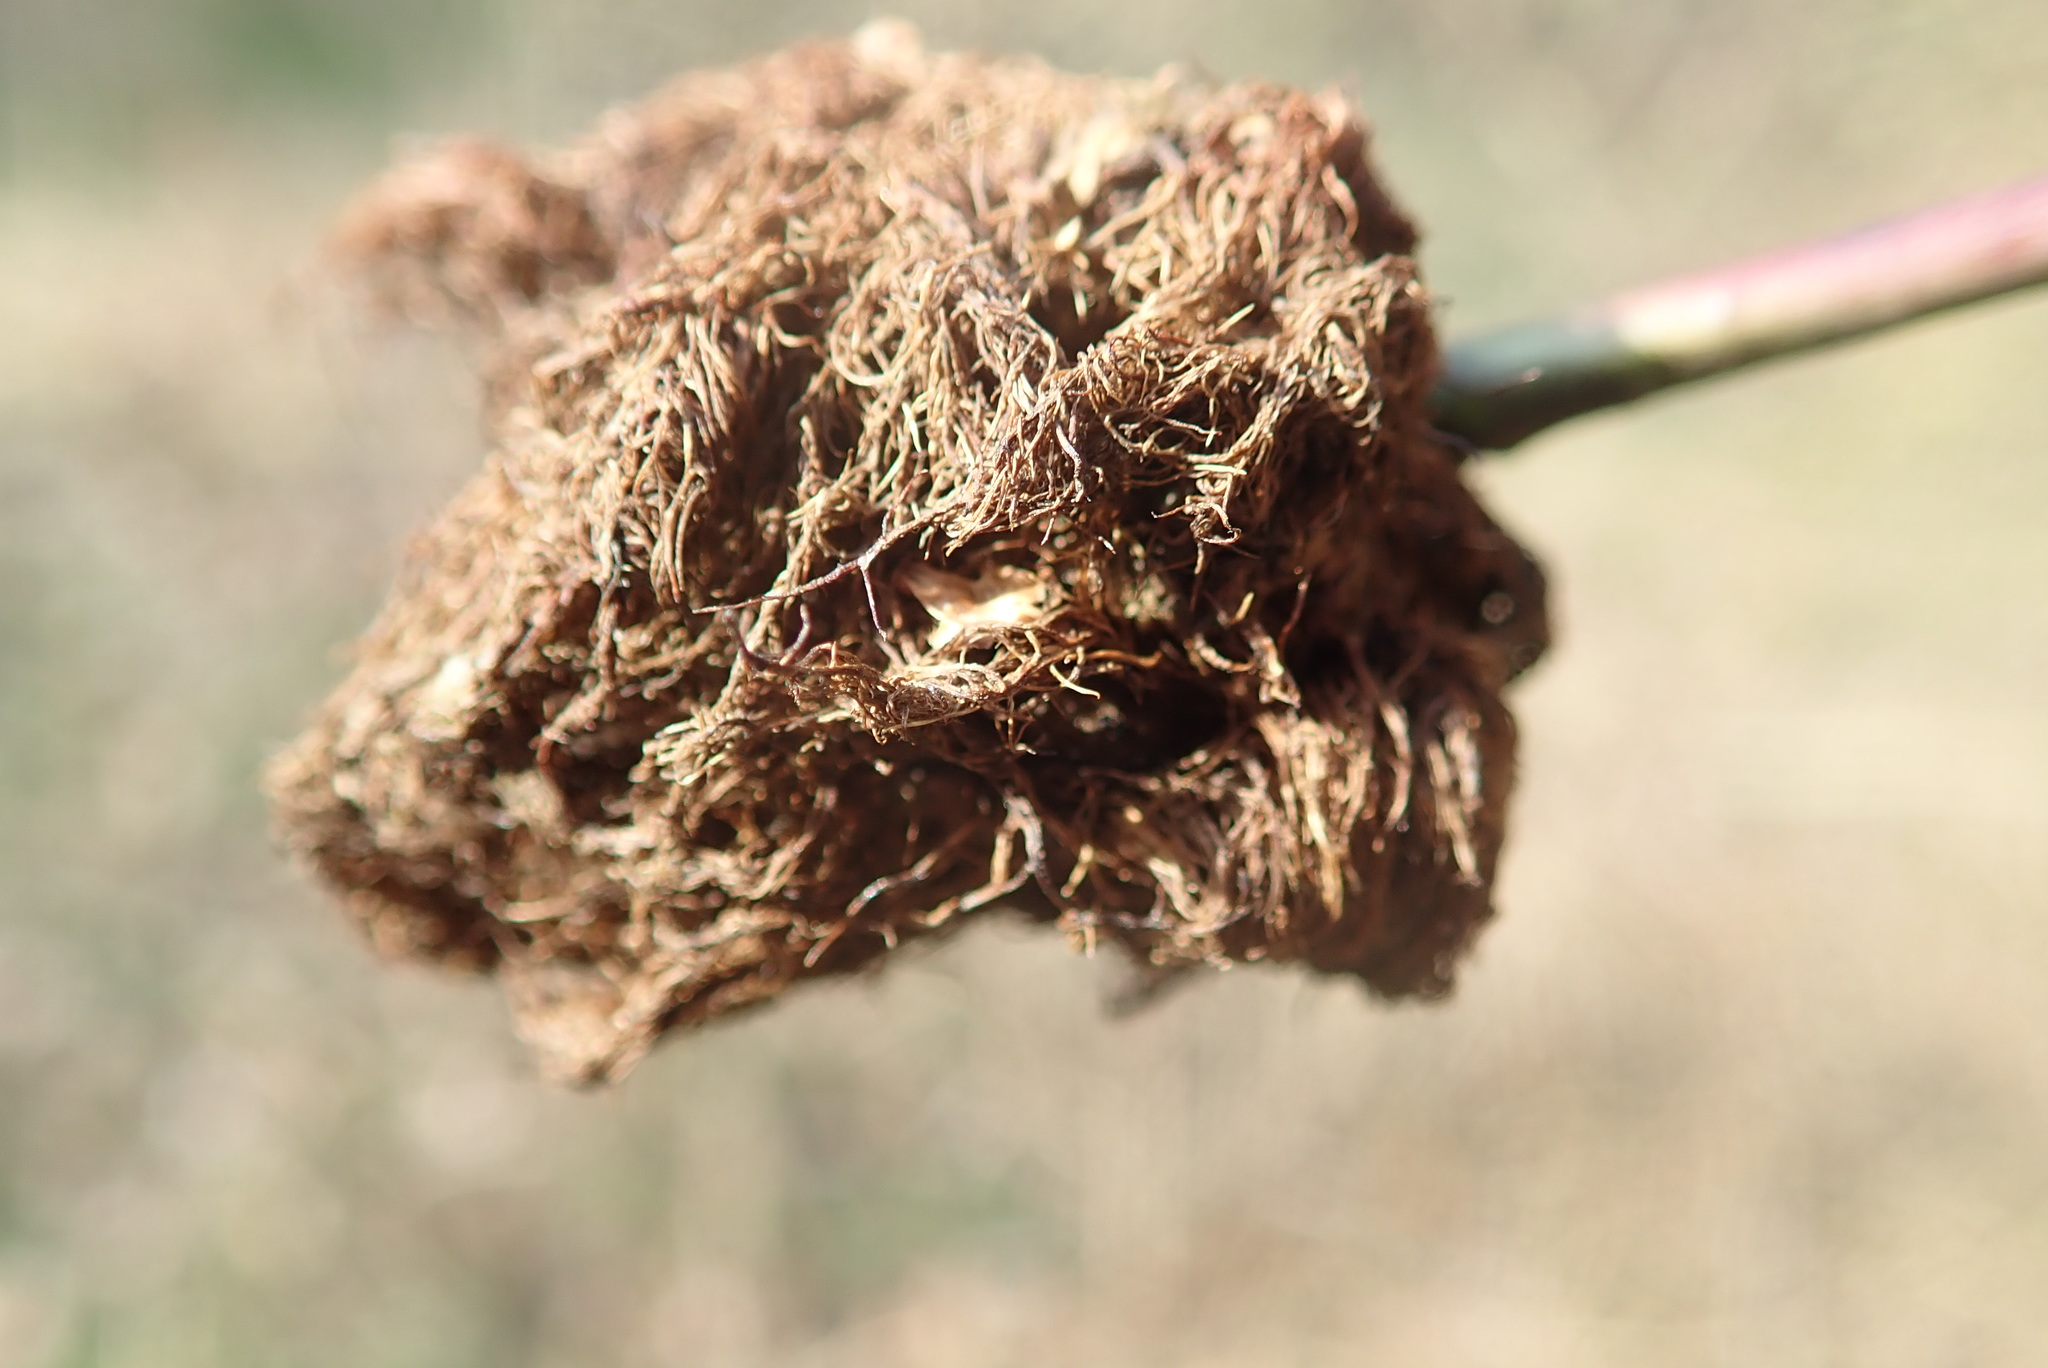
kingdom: Animalia
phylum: Arthropoda
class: Insecta
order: Hymenoptera
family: Cynipidae
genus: Diplolepis
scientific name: Diplolepis rosae
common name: Bedeguar gall
